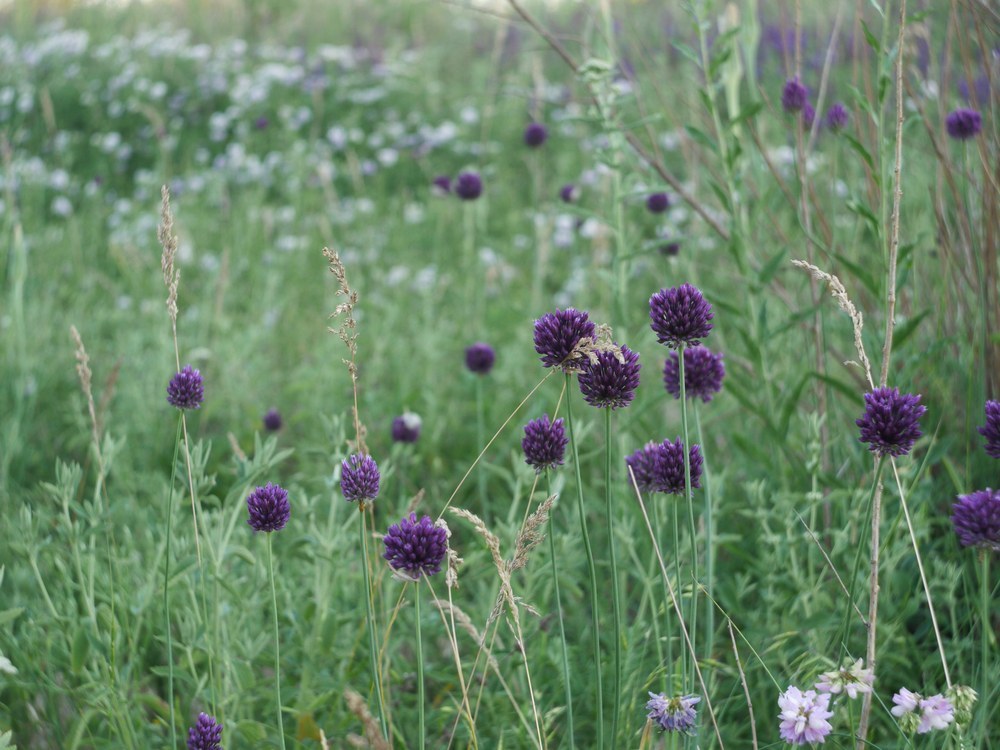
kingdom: Plantae
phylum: Tracheophyta
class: Liliopsida
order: Asparagales
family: Amaryllidaceae
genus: Allium
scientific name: Allium sphaerocephalon
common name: Round-headed leek
